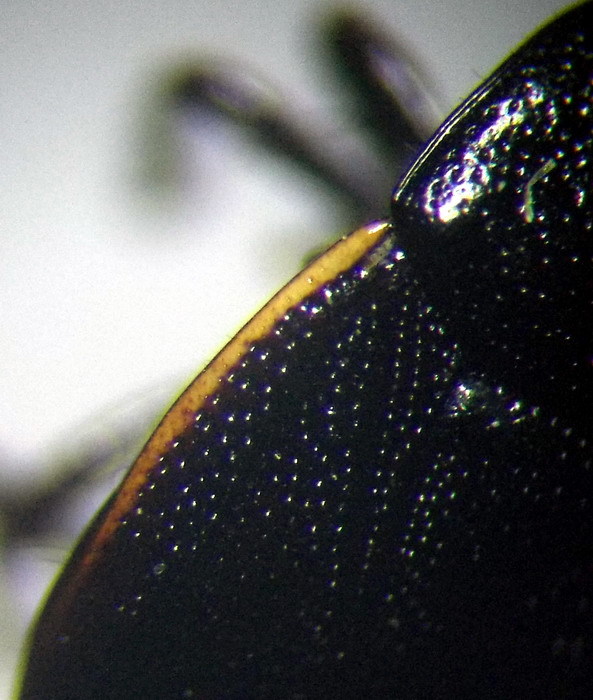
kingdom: Animalia
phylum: Arthropoda
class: Insecta
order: Hemiptera
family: Cydnidae
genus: Legnotus
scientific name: Legnotus picipes
